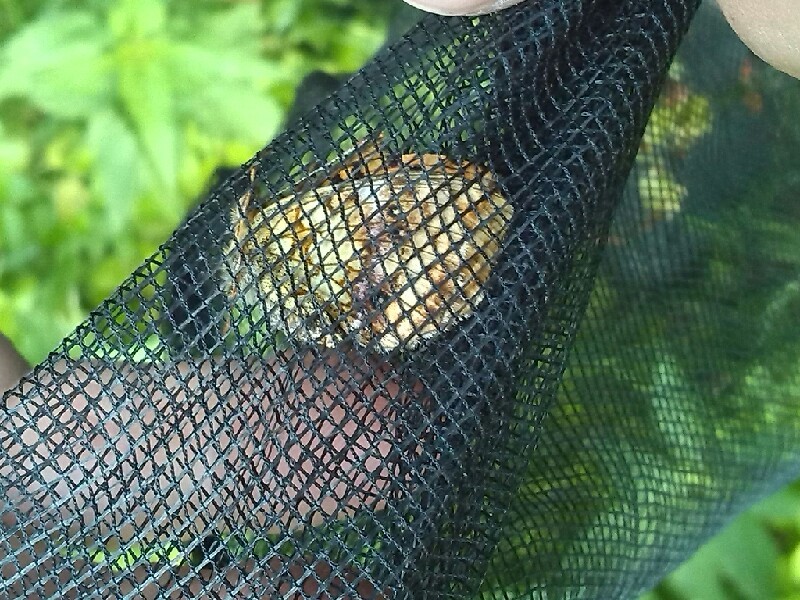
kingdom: Animalia
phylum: Arthropoda
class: Insecta
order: Lepidoptera
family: Nymphalidae
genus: Brenthis
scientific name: Brenthis ino
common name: Lesser marbled fritillary
